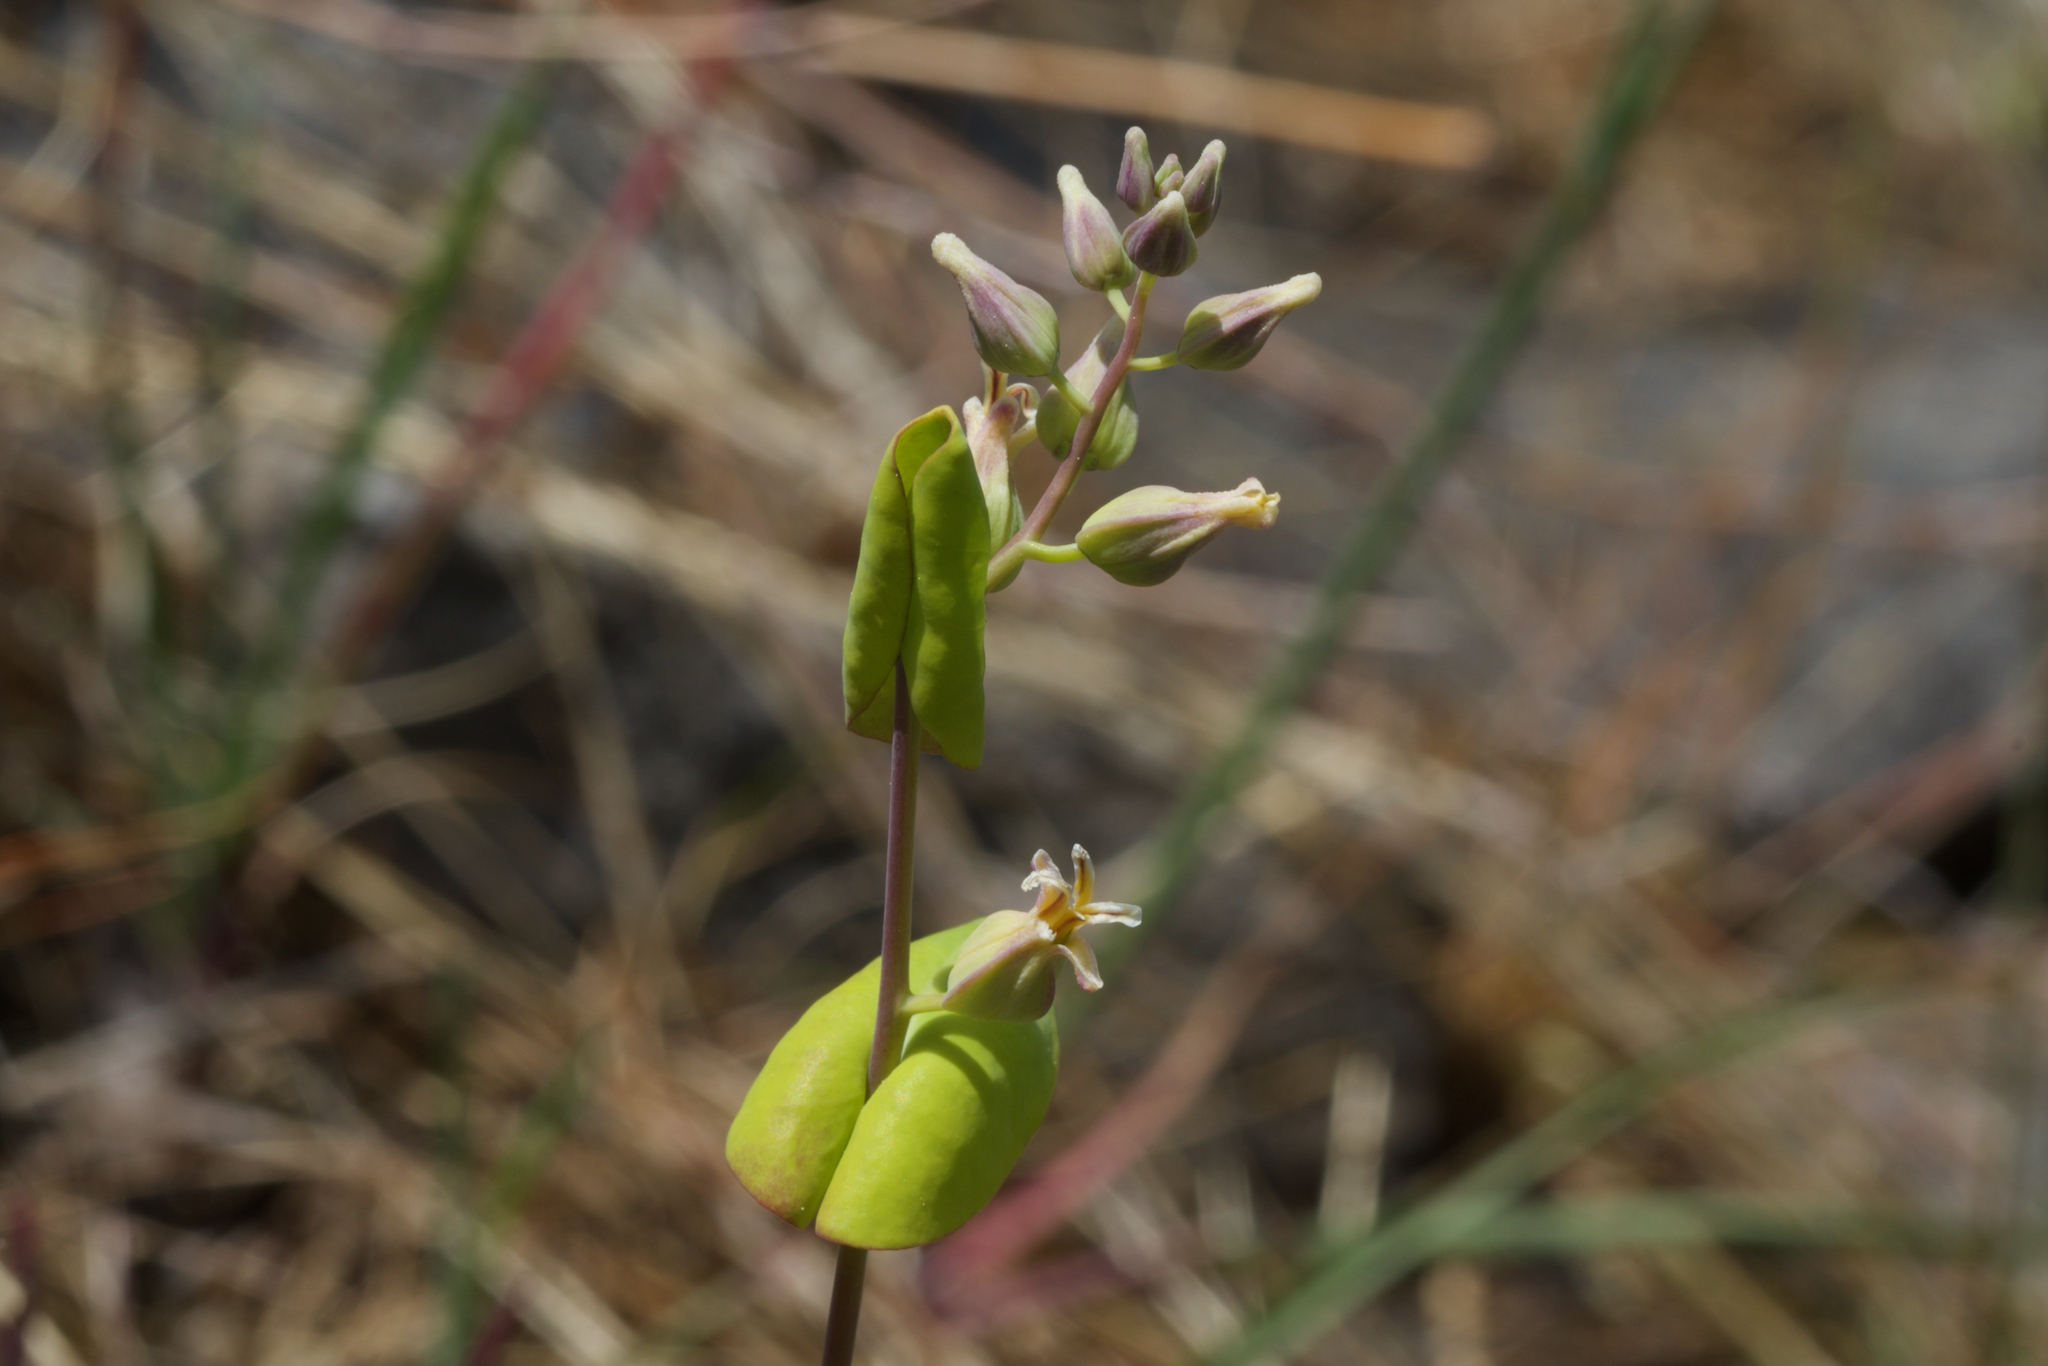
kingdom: Plantae
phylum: Tracheophyta
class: Magnoliopsida
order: Brassicales
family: Brassicaceae
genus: Streptanthus
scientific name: Streptanthus tortuosus
